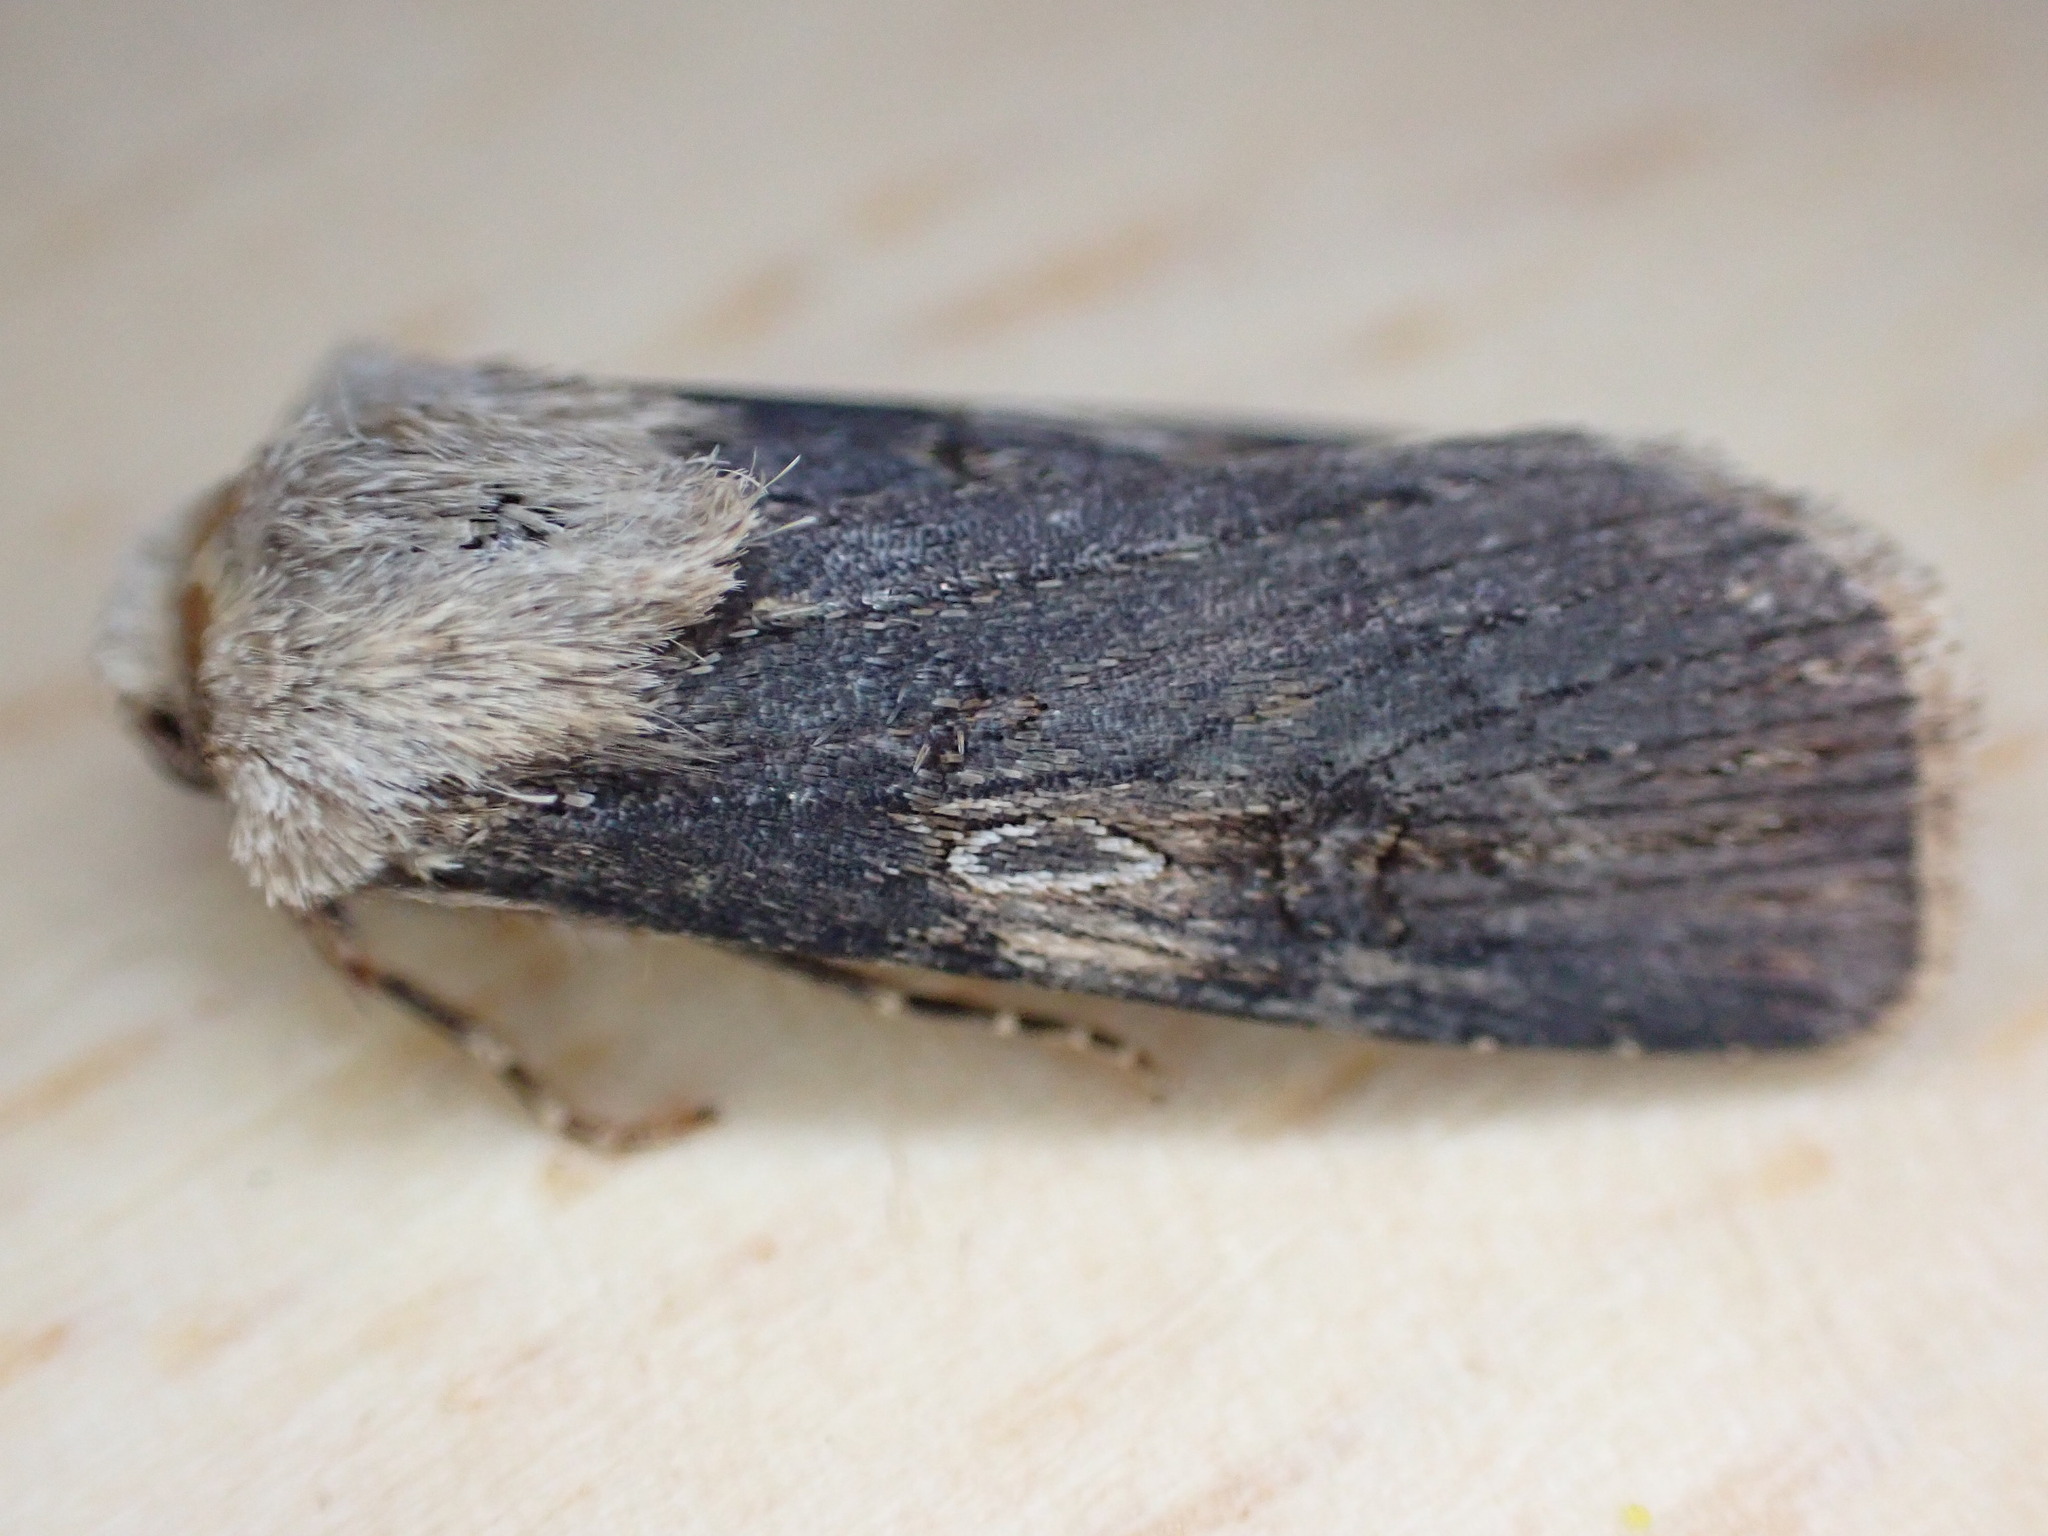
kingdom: Animalia
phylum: Arthropoda
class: Insecta
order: Lepidoptera
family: Noctuidae
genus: Agrotis
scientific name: Agrotis puta
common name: Shuttle-shaped dart
